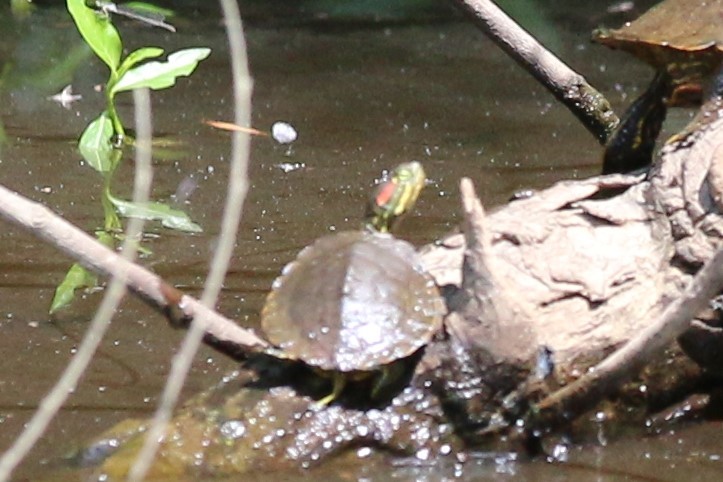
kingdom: Animalia
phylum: Chordata
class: Testudines
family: Emydidae
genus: Trachemys
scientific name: Trachemys scripta
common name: Slider
